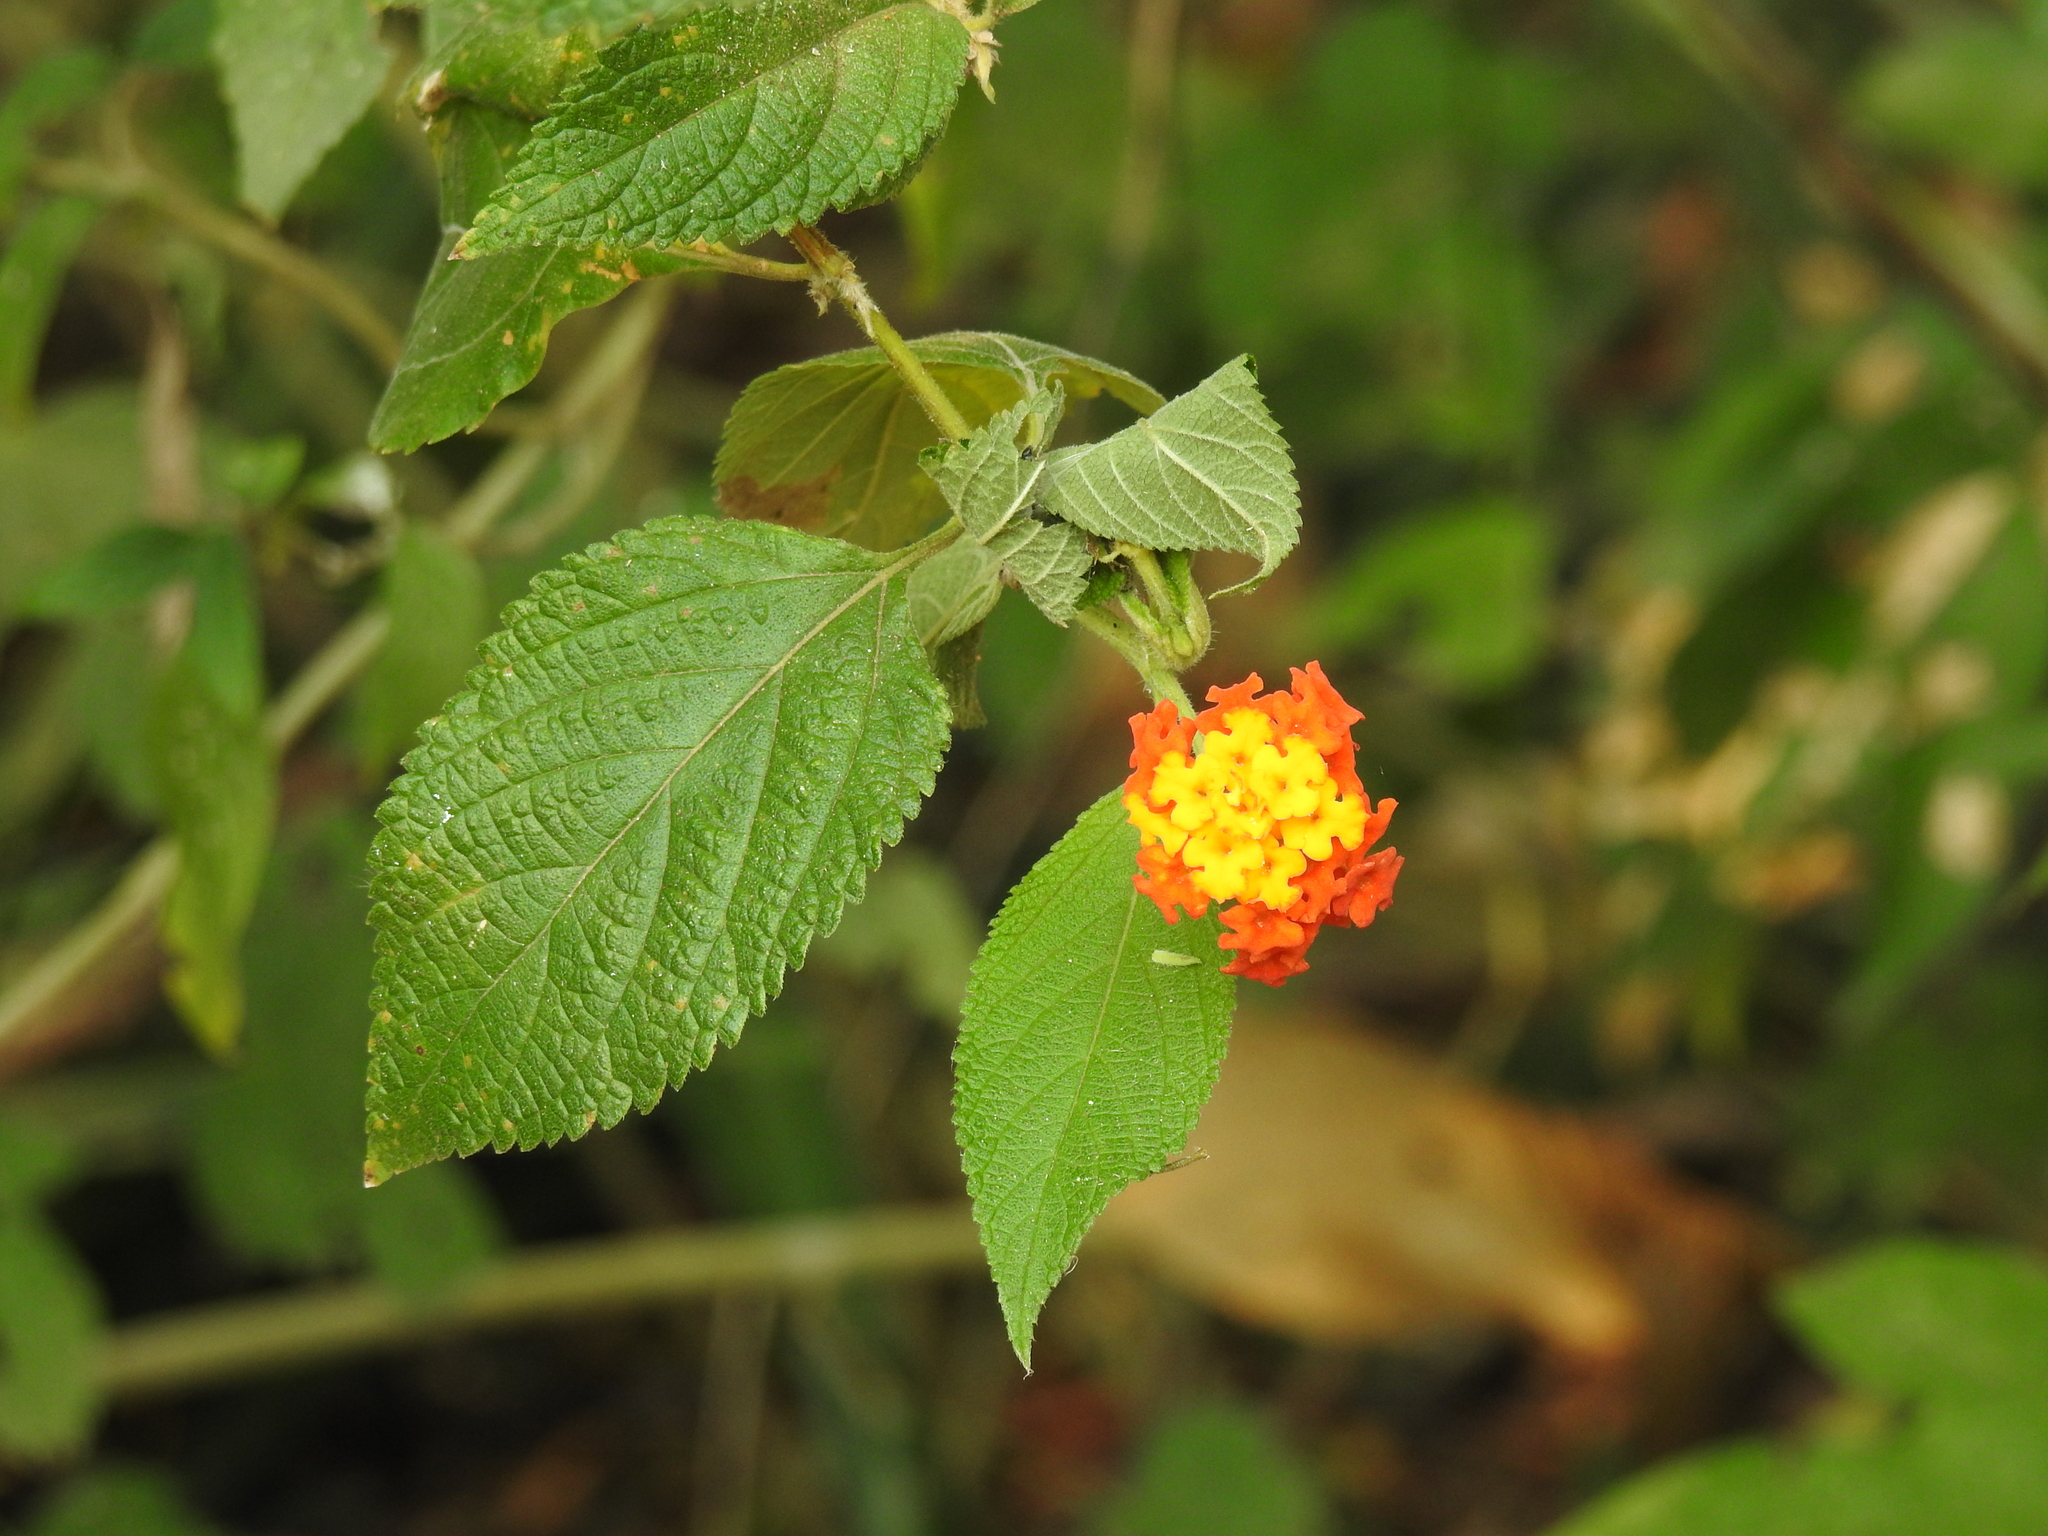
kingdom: Plantae
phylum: Tracheophyta
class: Magnoliopsida
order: Lamiales
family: Verbenaceae
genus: Lantana
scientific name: Lantana camara
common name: Lantana
